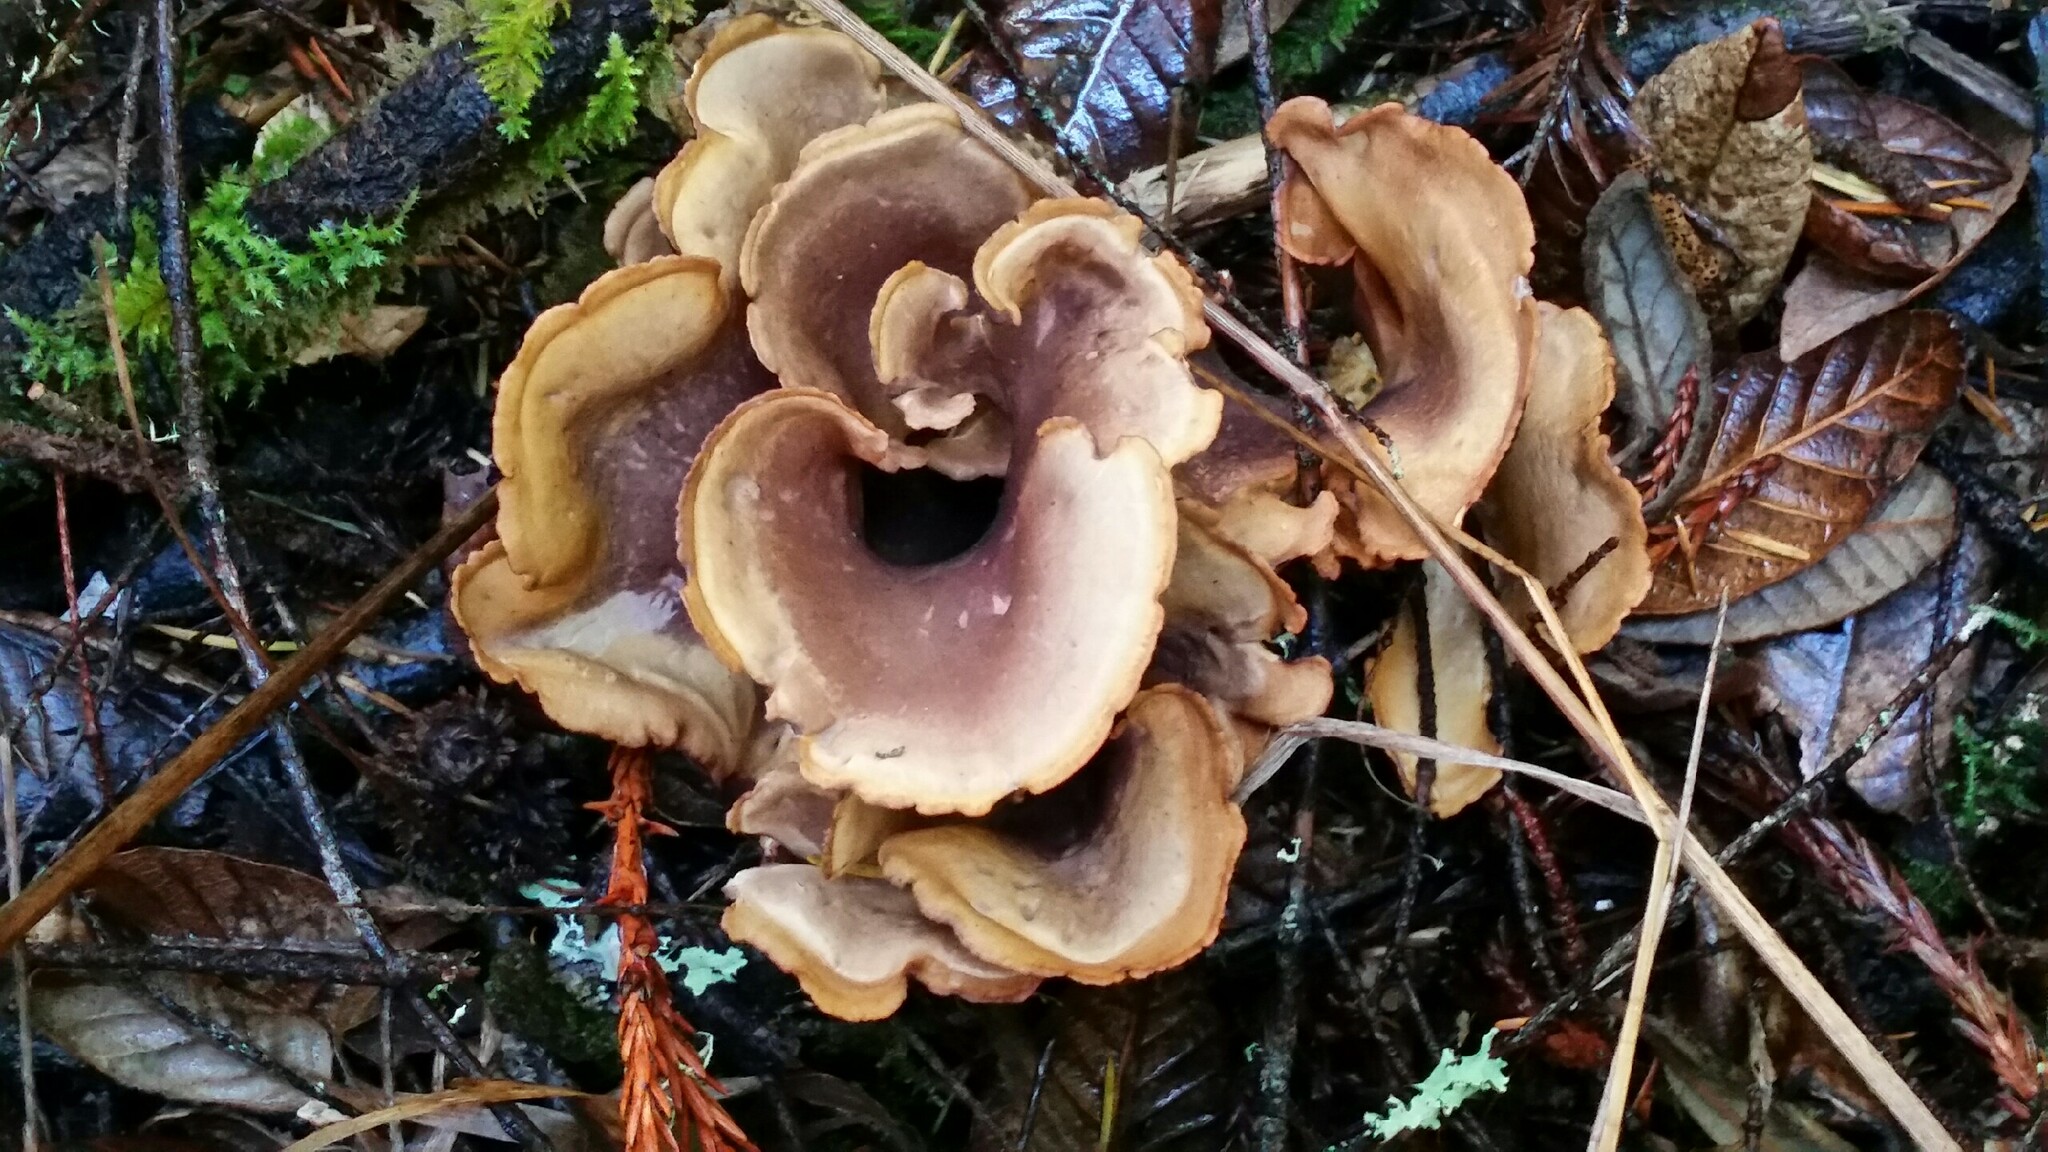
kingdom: Fungi
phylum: Basidiomycota
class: Agaricomycetes
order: Gomphales
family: Gomphaceae
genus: Gomphus
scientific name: Gomphus clavatus
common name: Pig's ear
